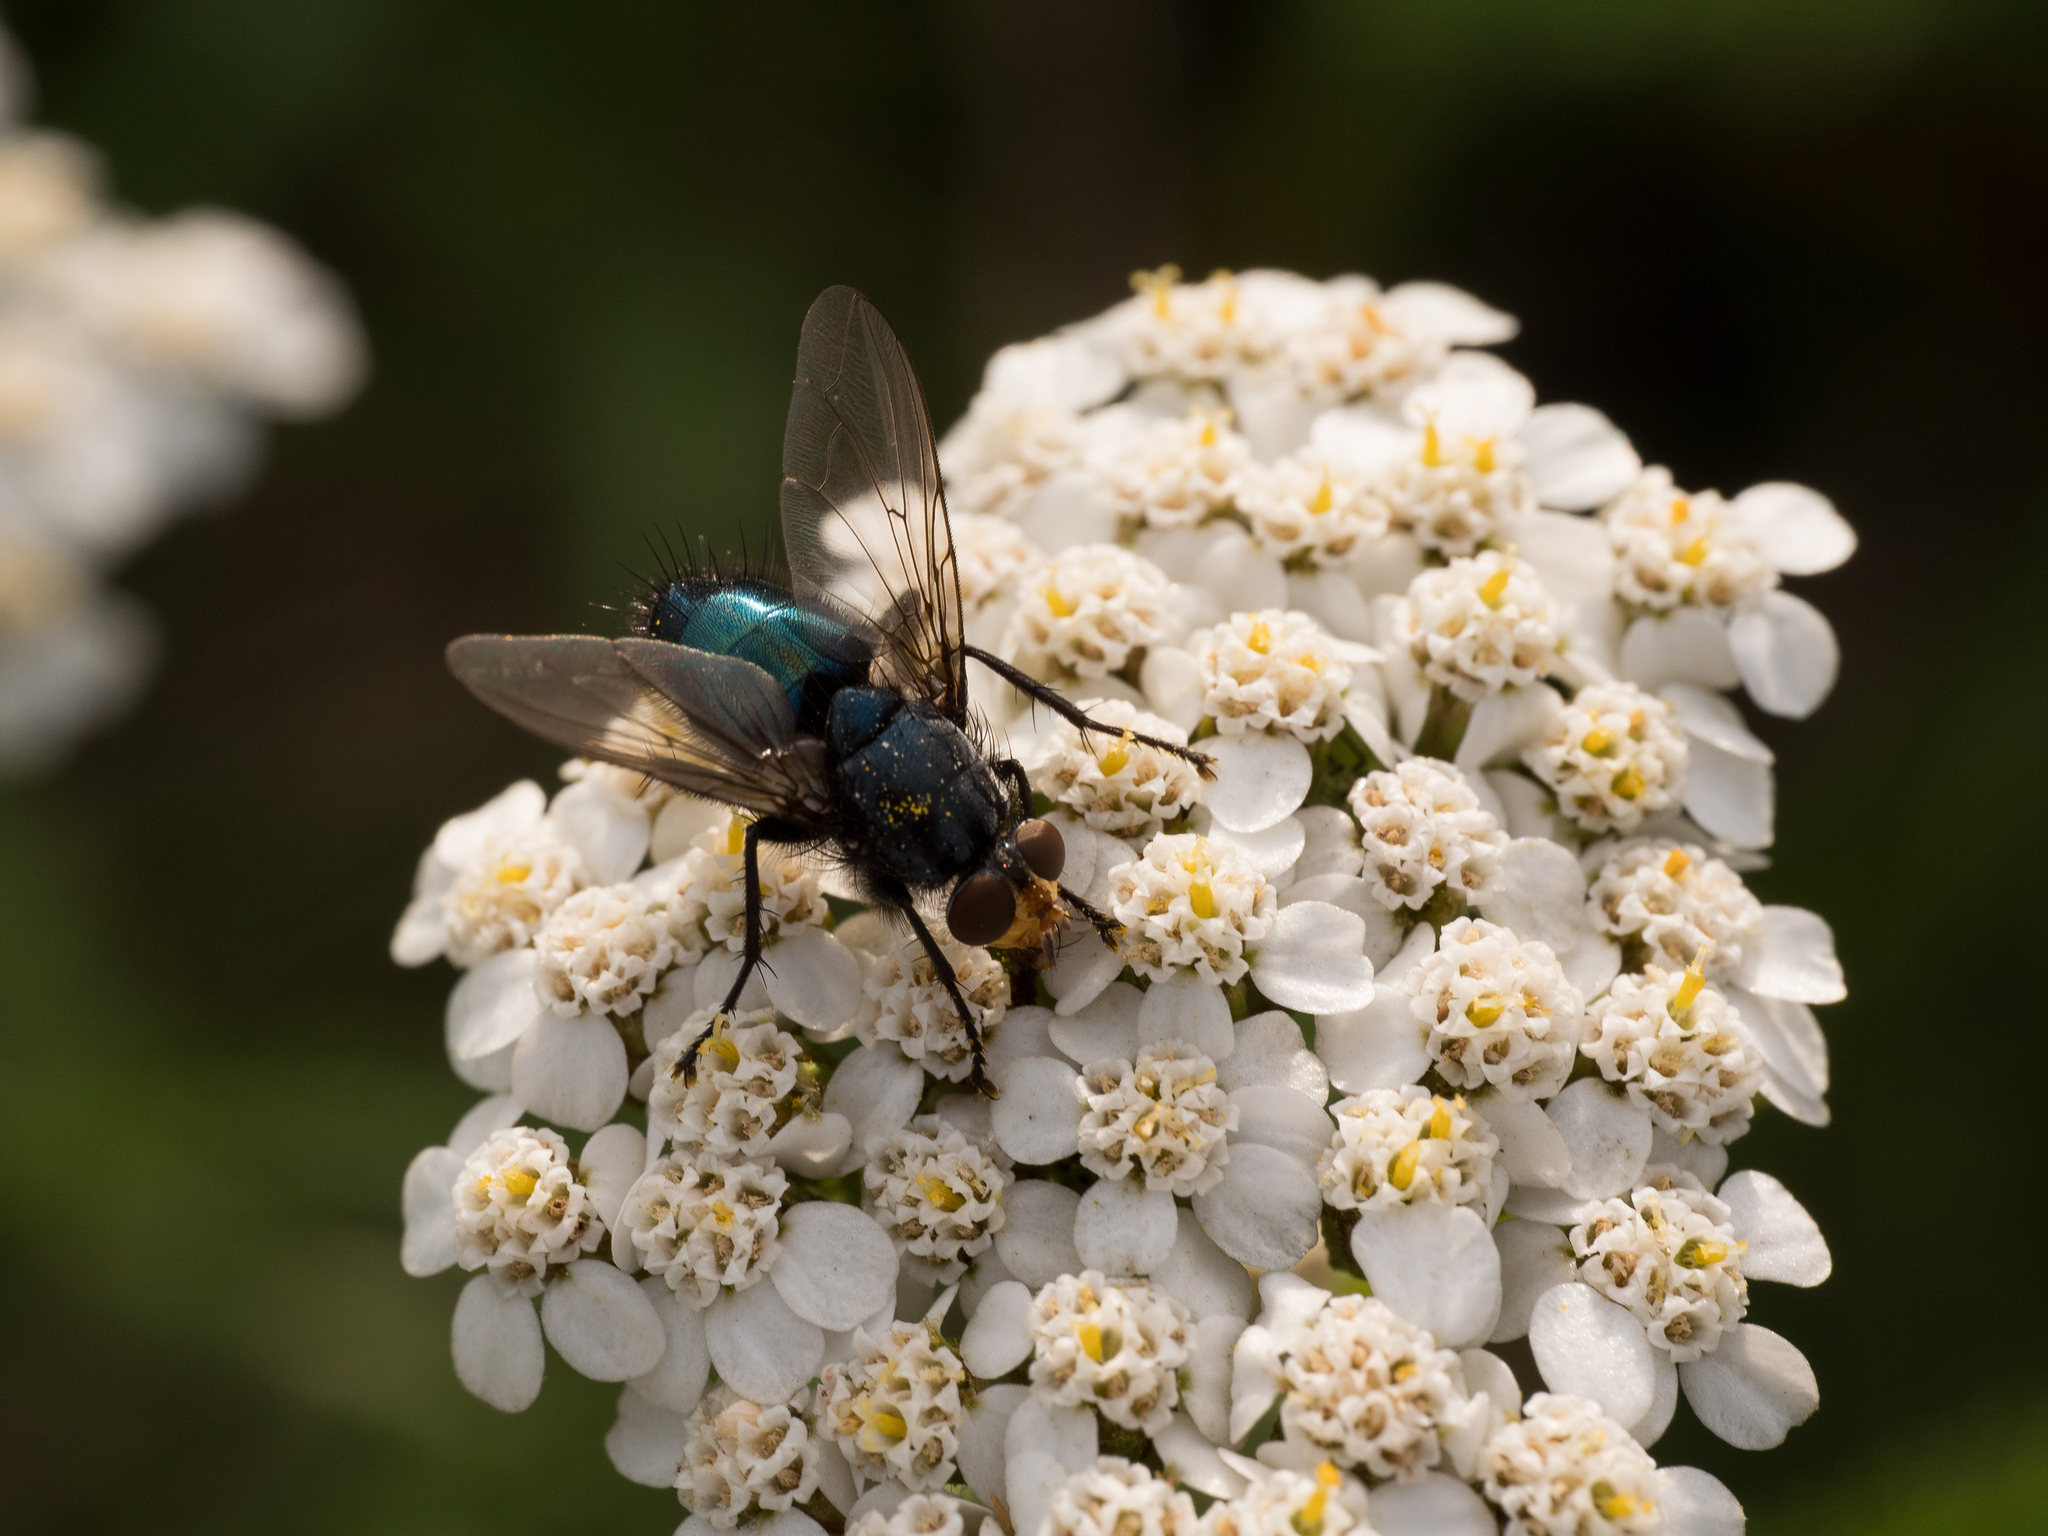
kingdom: Animalia
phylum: Arthropoda
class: Insecta
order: Diptera
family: Calliphoridae
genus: Cynomya
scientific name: Cynomya mortuorum
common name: Bluebottle blow fly
